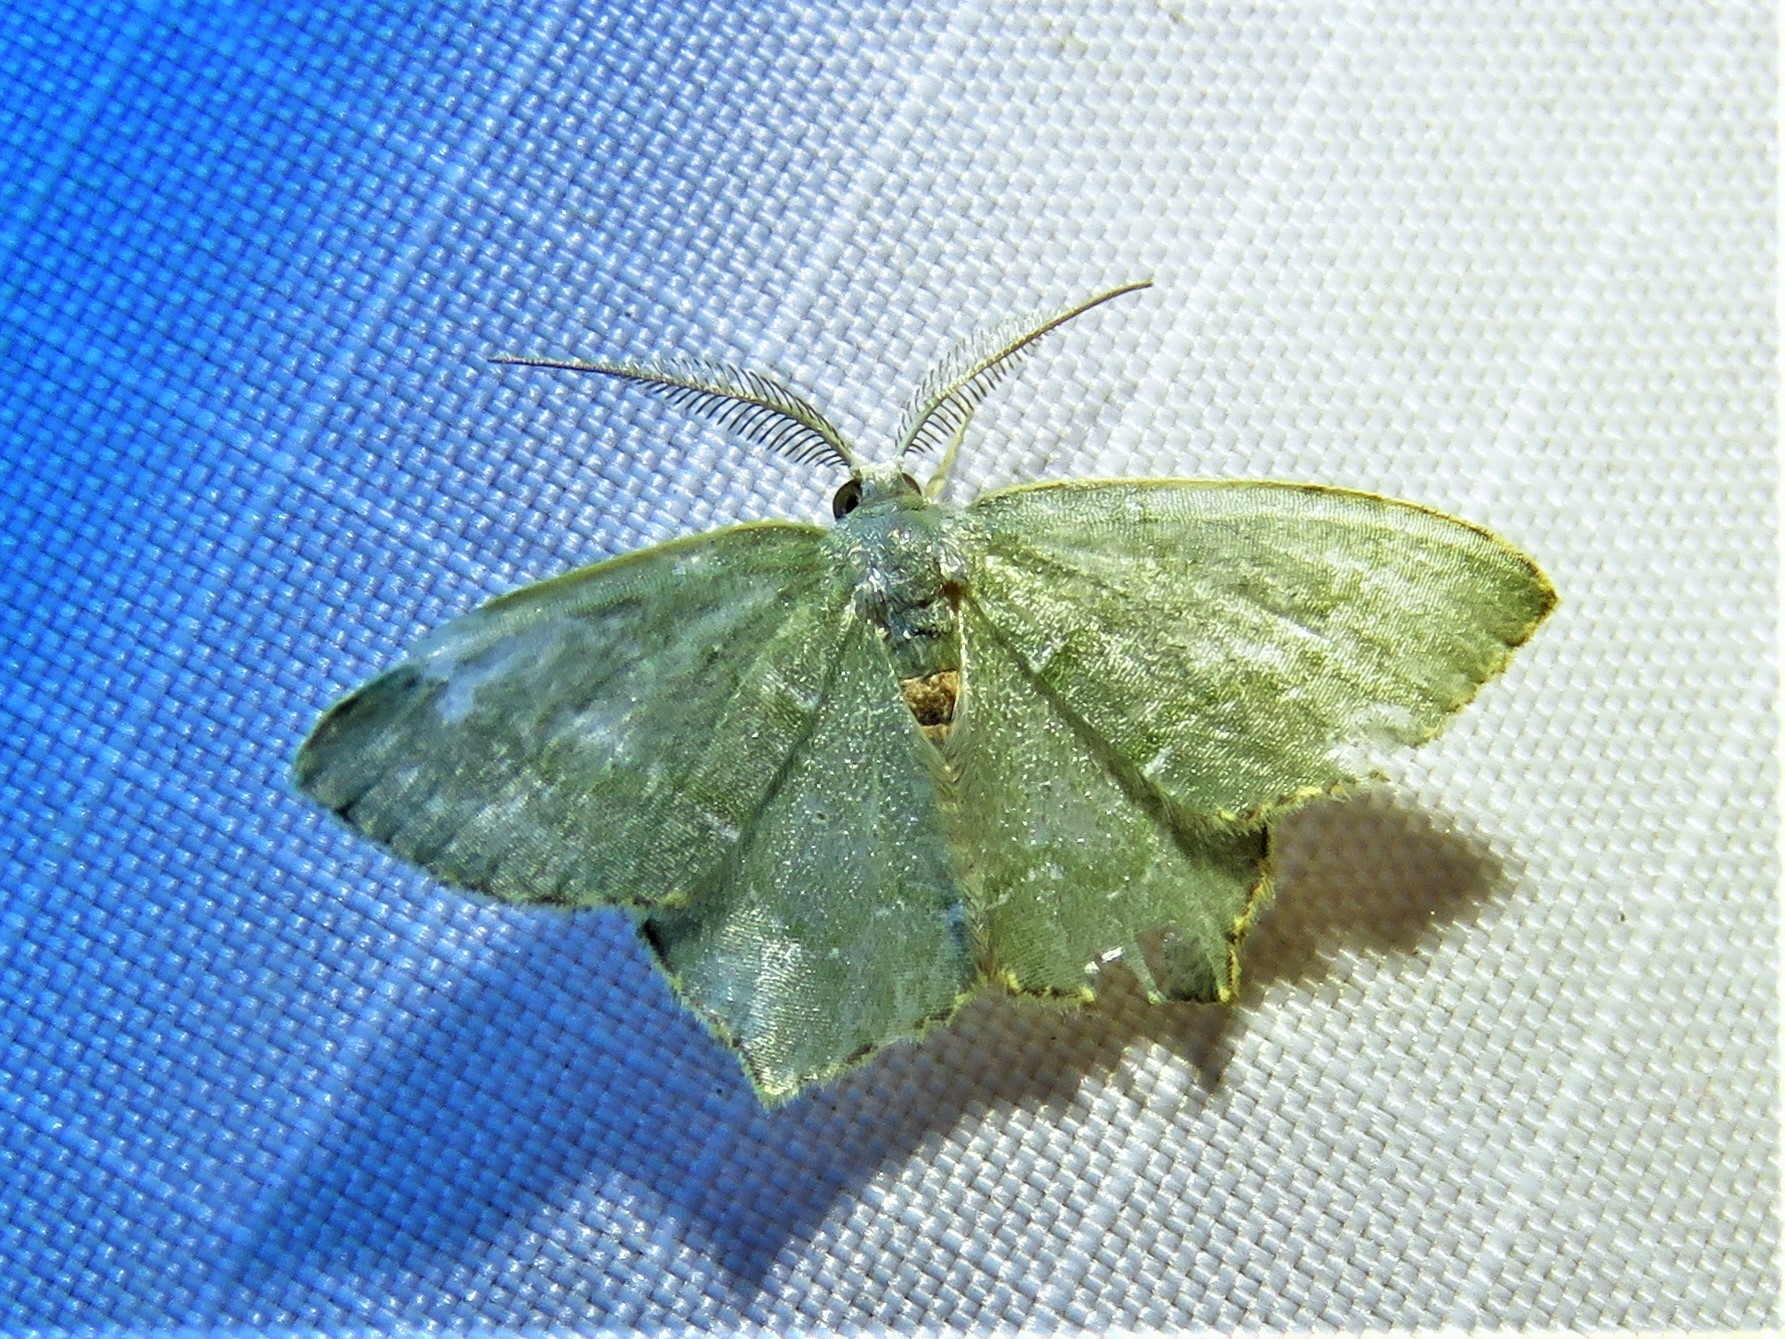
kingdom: Animalia
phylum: Arthropoda
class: Insecta
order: Lepidoptera
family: Geometridae
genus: Chloropteryx
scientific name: Chloropteryx tepperaria
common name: Angle winged emerald moth
